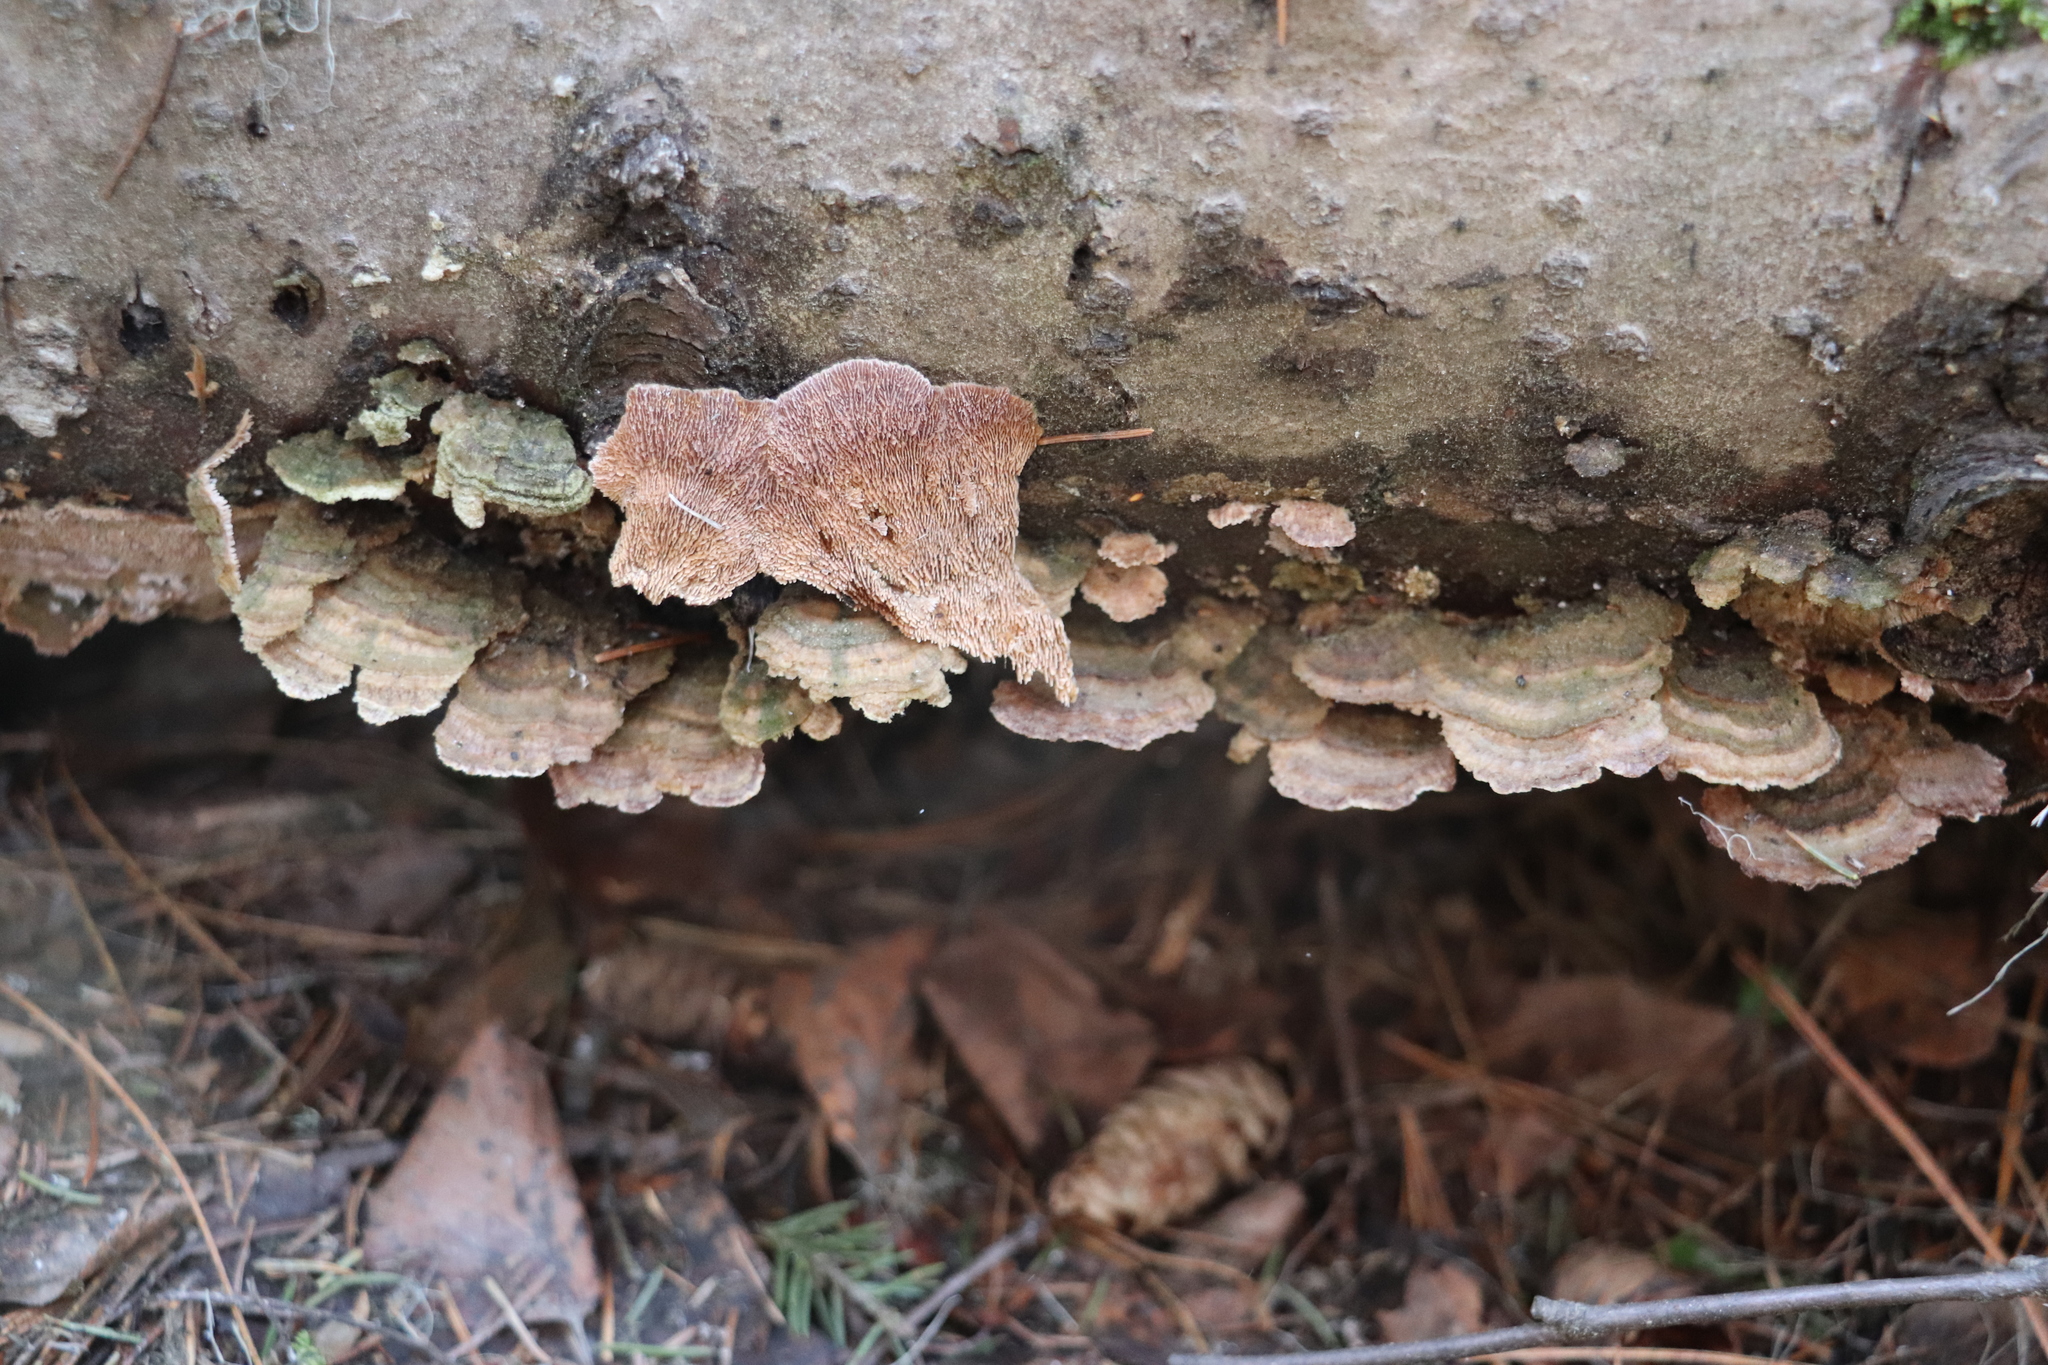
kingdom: Fungi
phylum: Basidiomycota
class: Agaricomycetes
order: Hymenochaetales
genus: Trichaptum
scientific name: Trichaptum fuscoviolaceum
